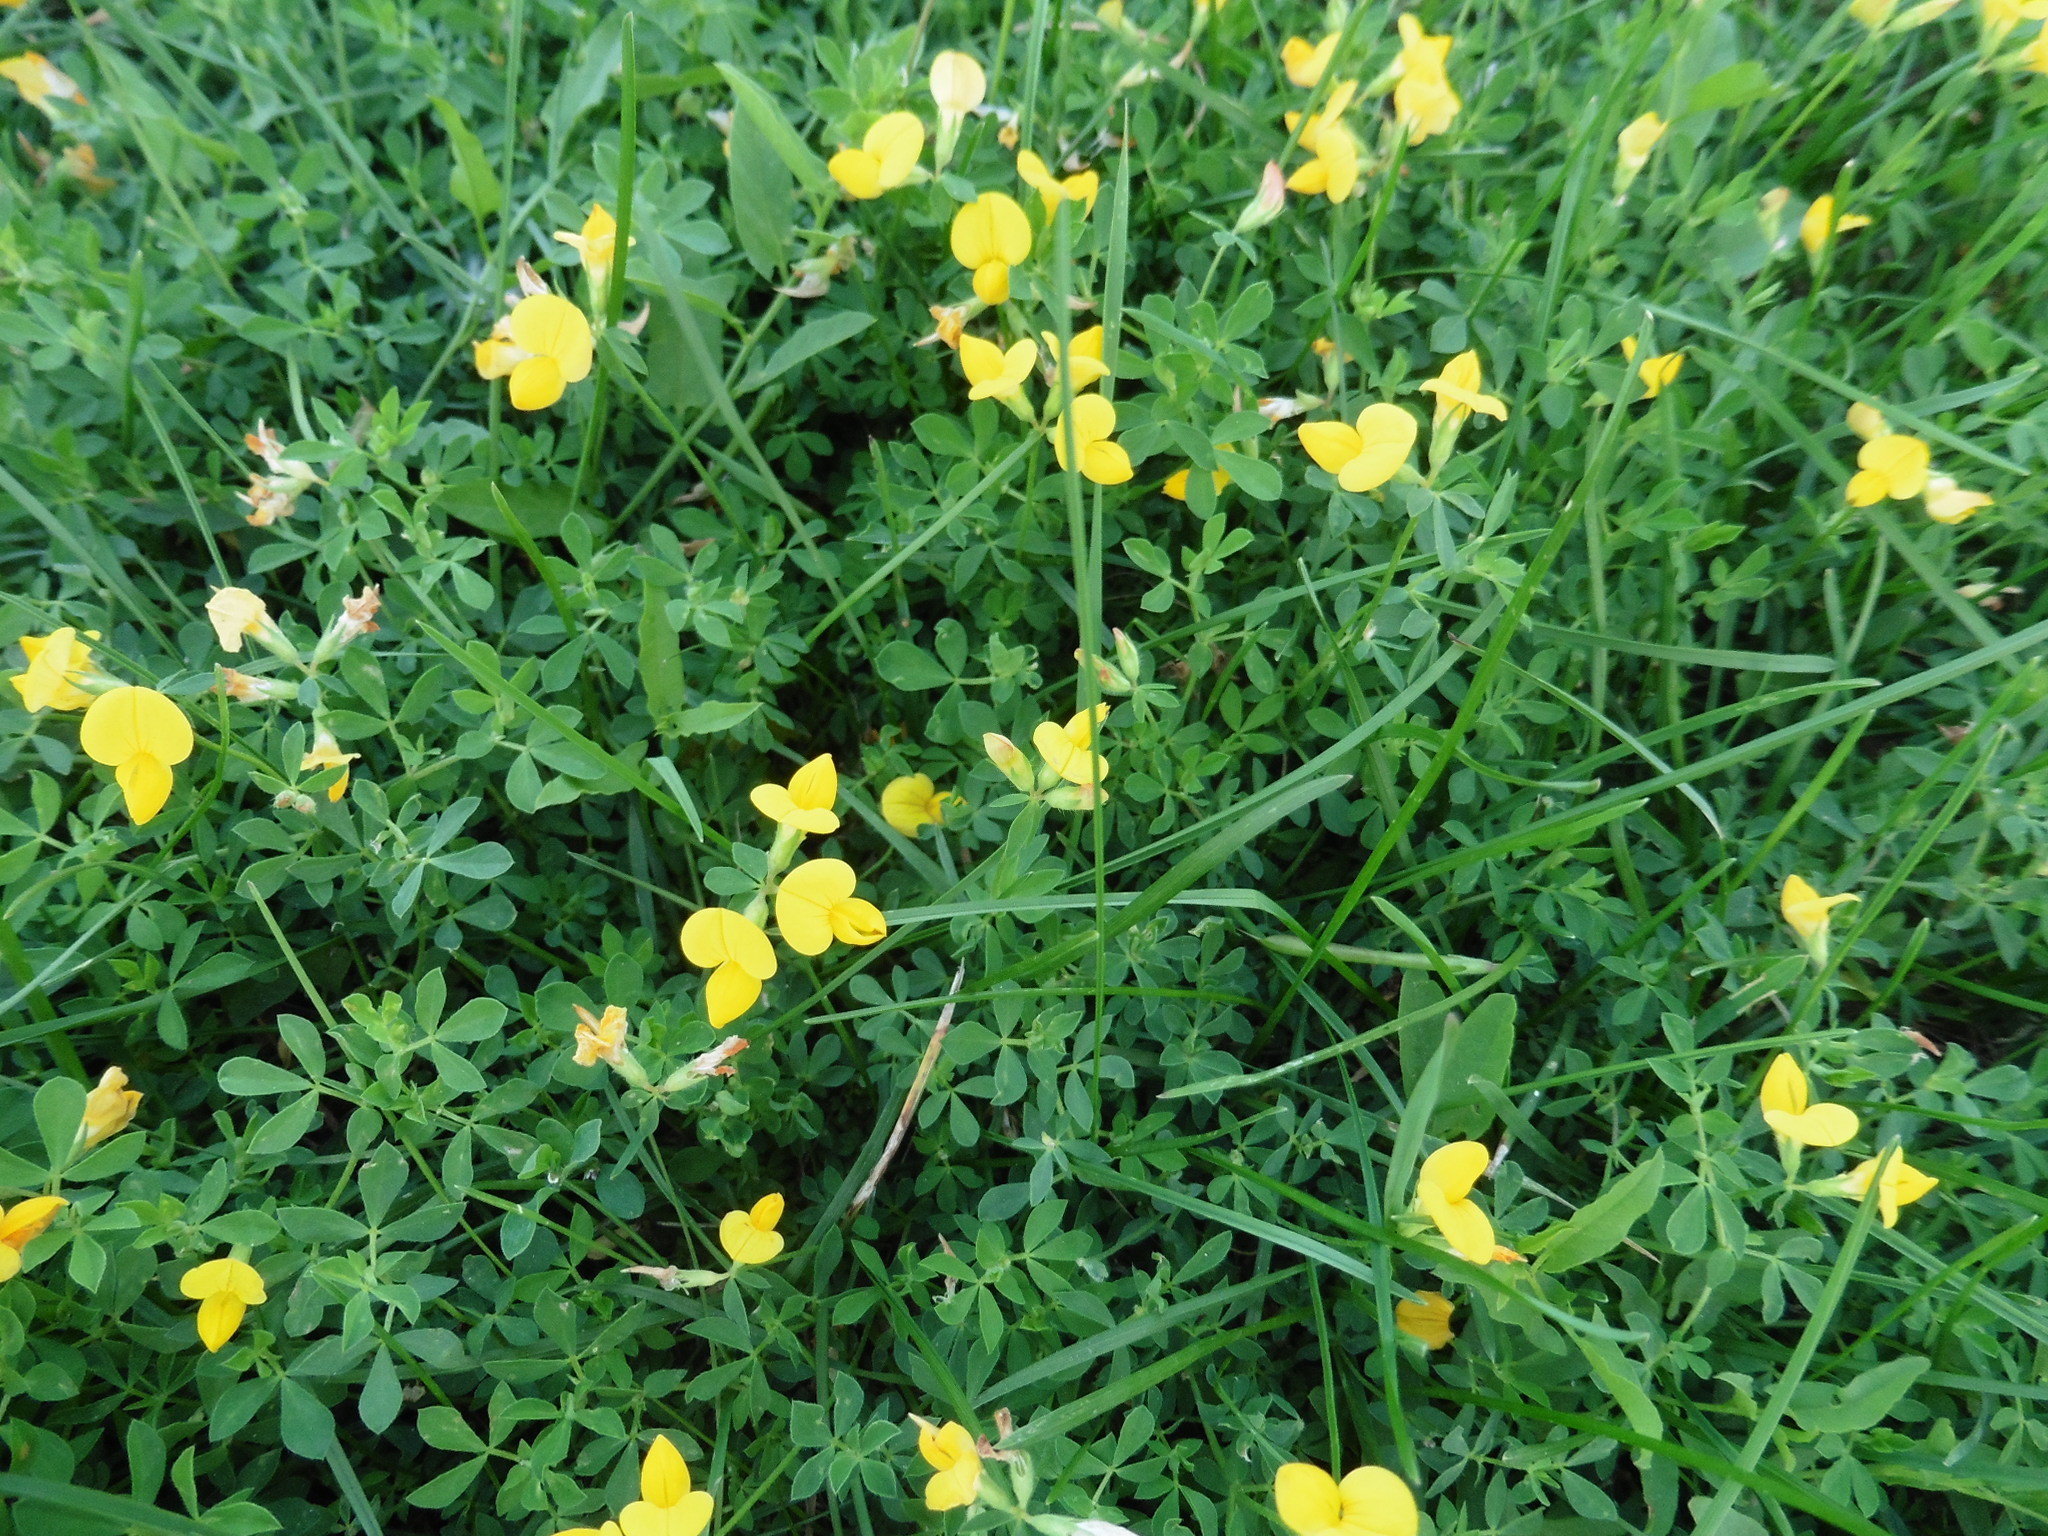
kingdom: Plantae
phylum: Tracheophyta
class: Magnoliopsida
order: Fabales
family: Fabaceae
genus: Lotus
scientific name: Lotus corniculatus
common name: Common bird's-foot-trefoil
